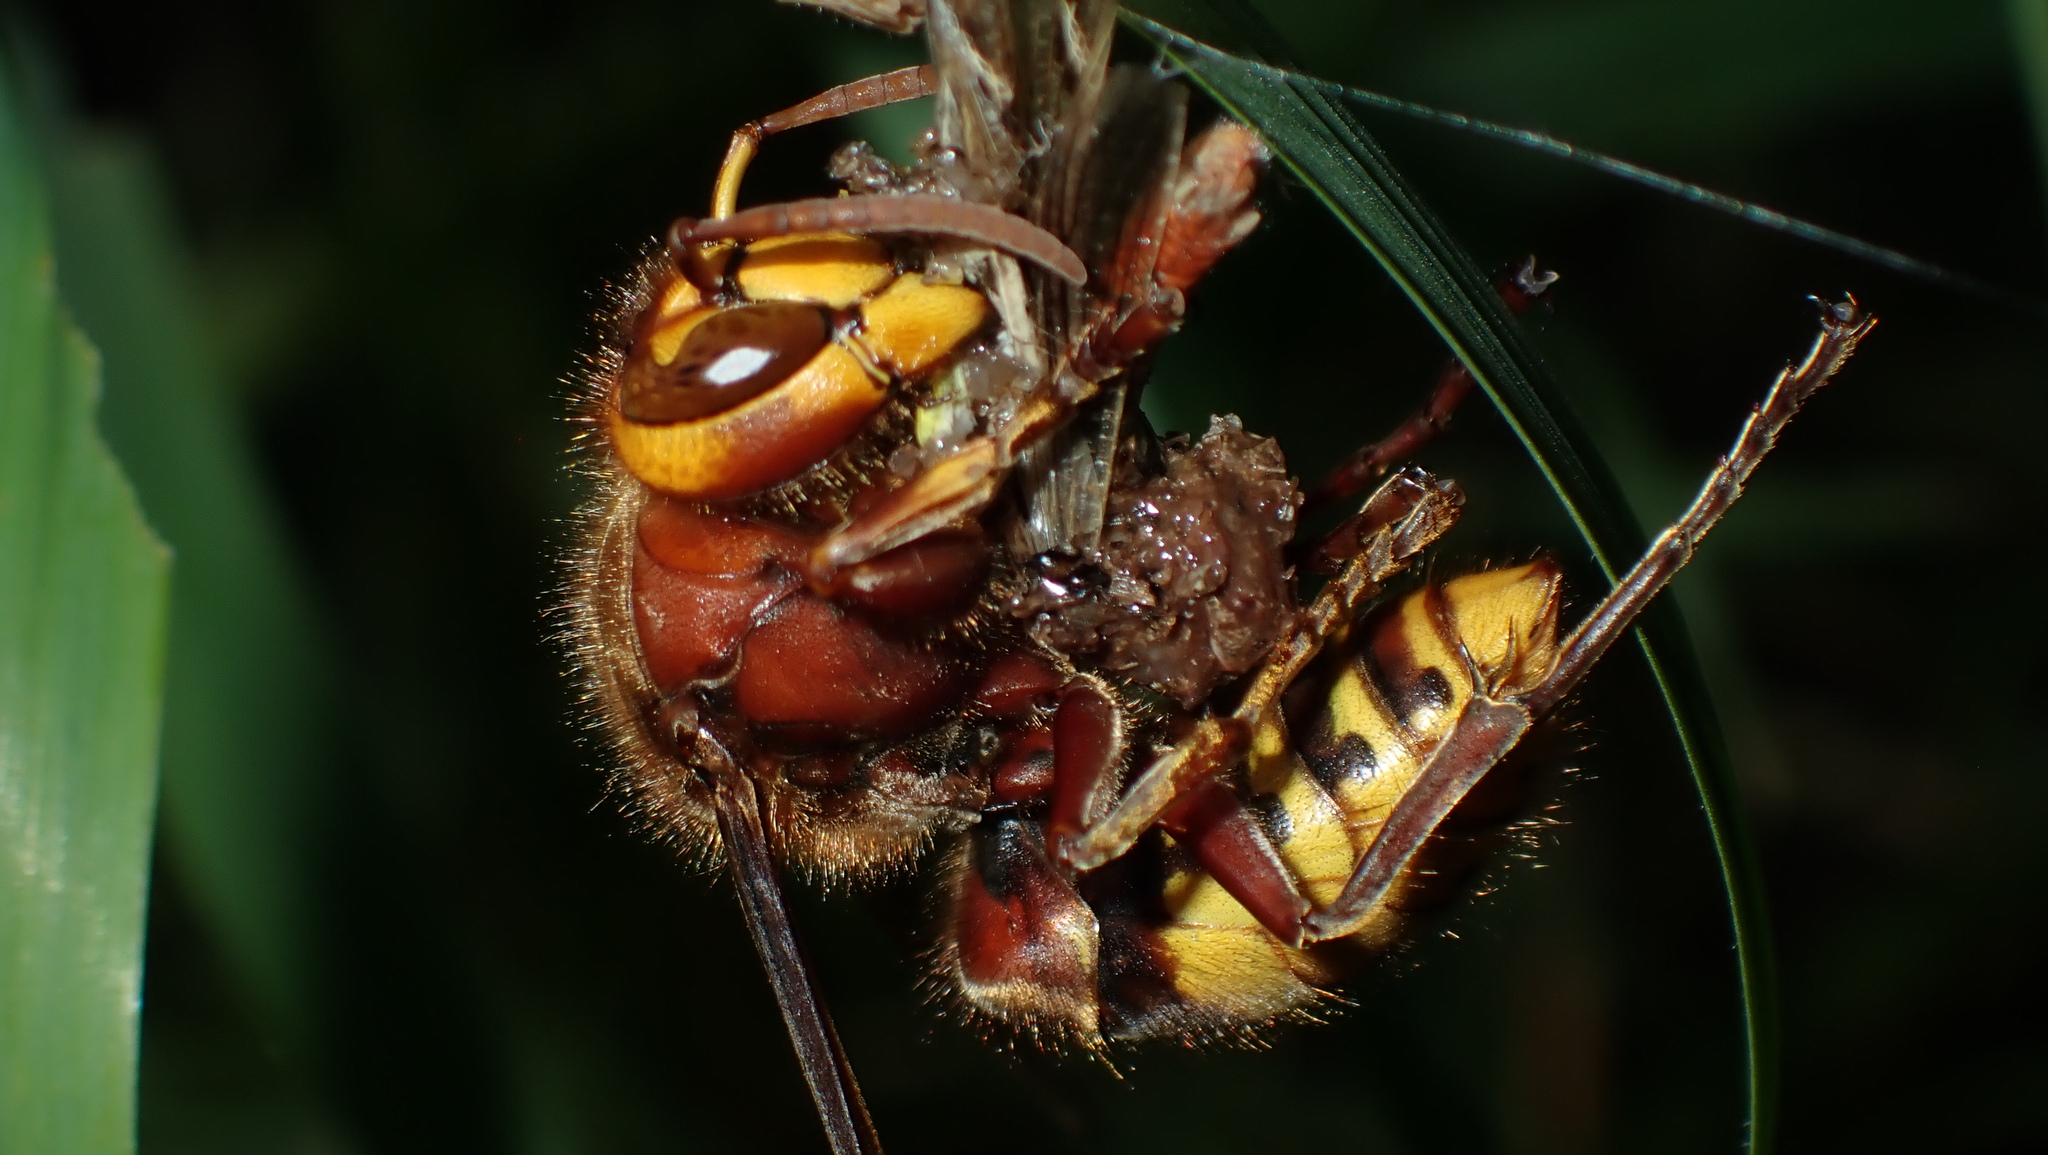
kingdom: Animalia
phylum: Arthropoda
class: Insecta
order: Hymenoptera
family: Vespidae
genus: Vespa
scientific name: Vespa crabro
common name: Hornet
